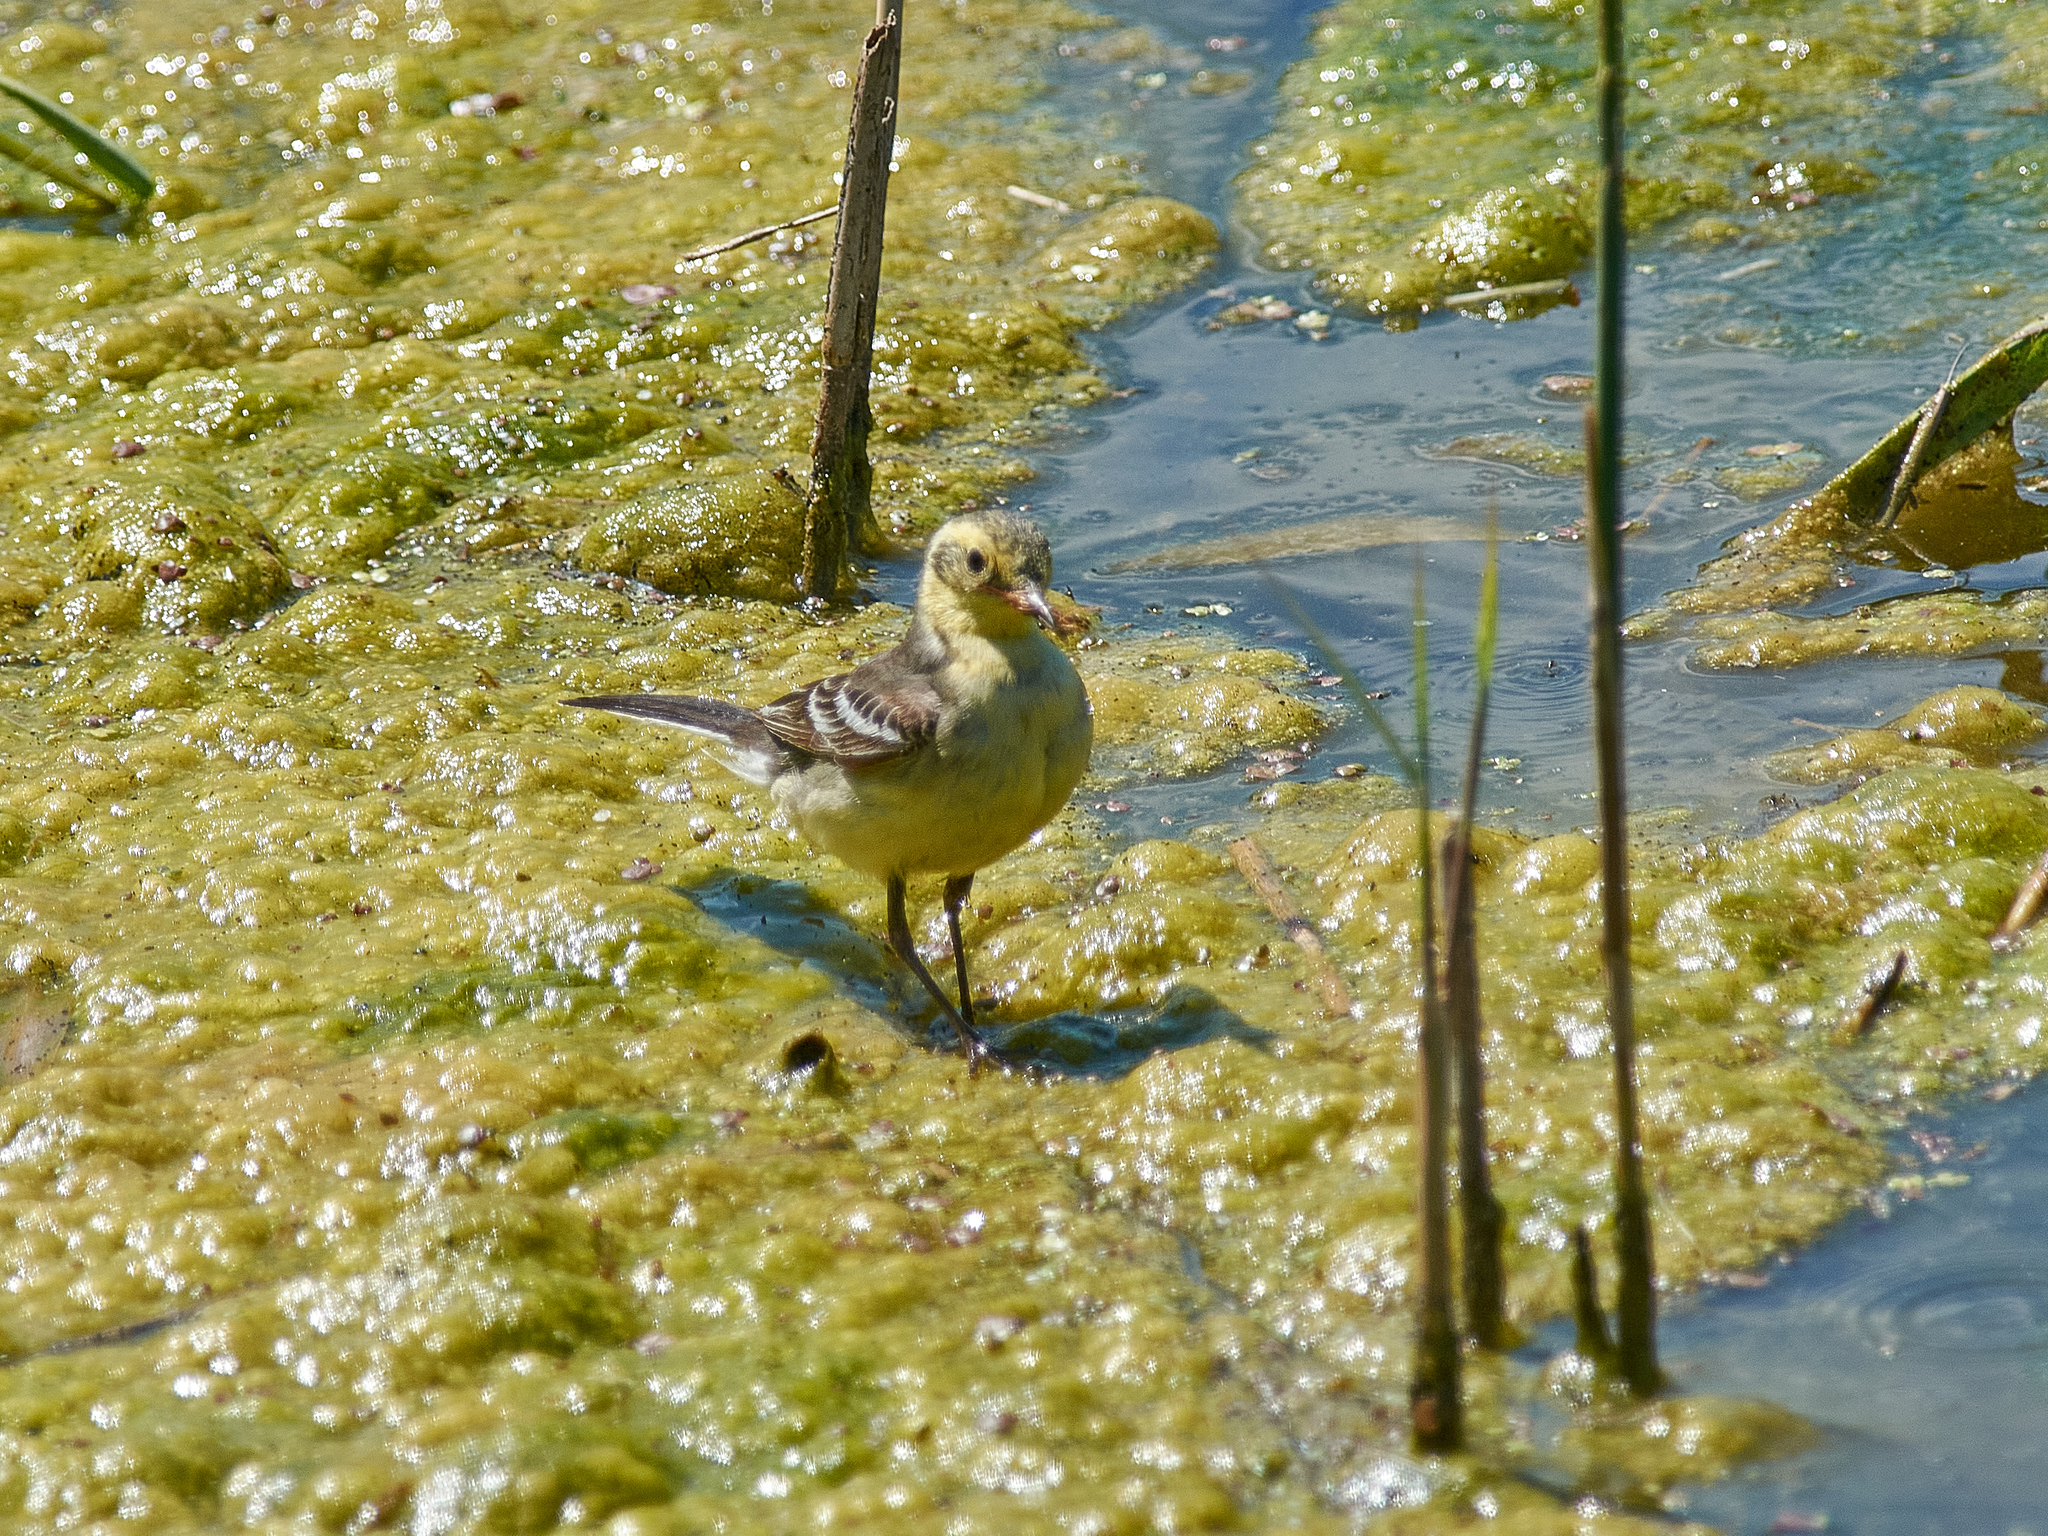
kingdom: Animalia
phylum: Chordata
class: Aves
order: Passeriformes
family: Motacillidae
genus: Motacilla
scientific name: Motacilla citreola
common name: Citrine wagtail
